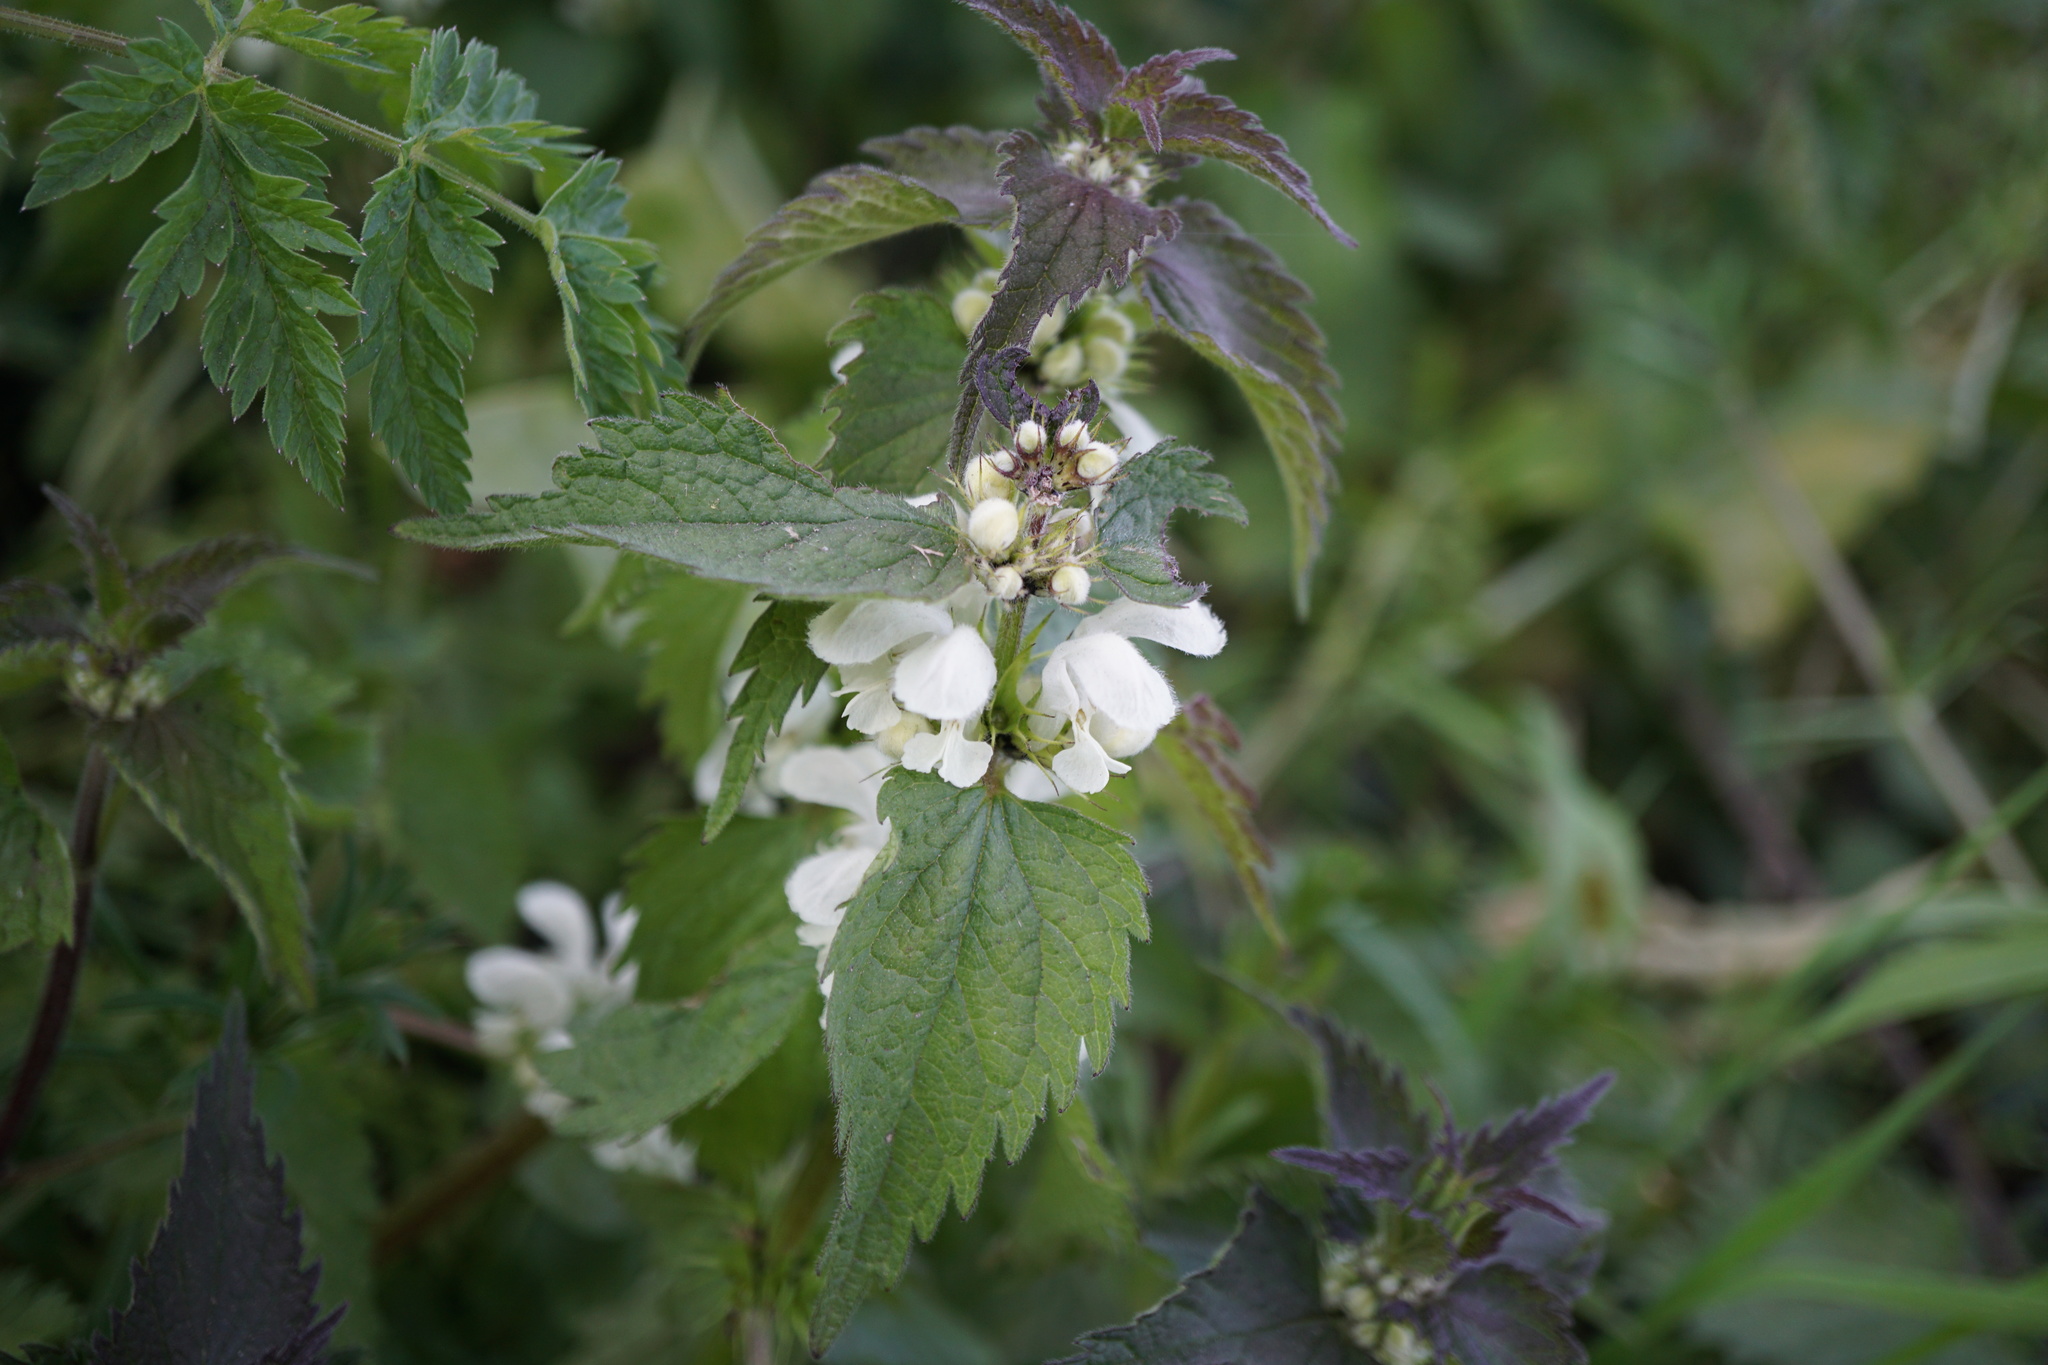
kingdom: Plantae
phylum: Tracheophyta
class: Magnoliopsida
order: Lamiales
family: Lamiaceae
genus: Lamium
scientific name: Lamium album
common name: White dead-nettle
